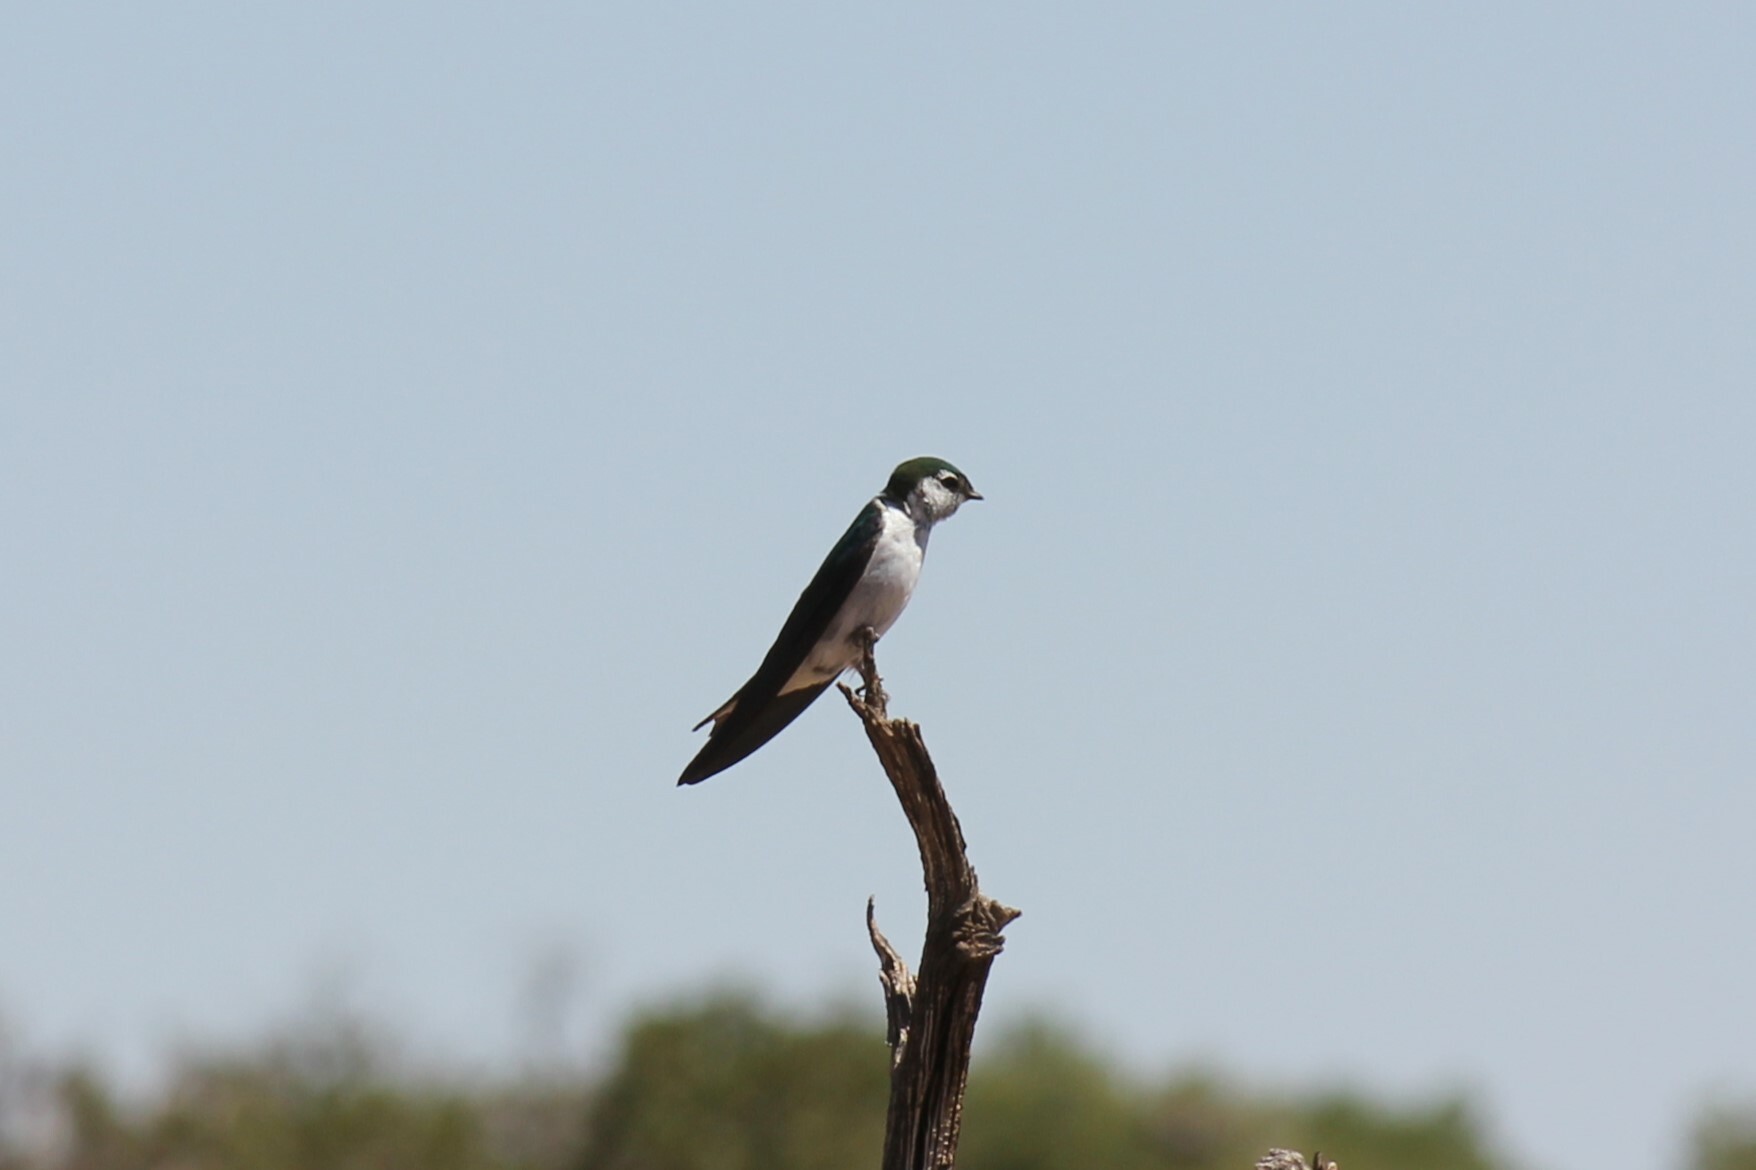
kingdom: Animalia
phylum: Chordata
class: Aves
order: Passeriformes
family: Hirundinidae
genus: Tachycineta
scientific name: Tachycineta thalassina
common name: Violet-green swallow
